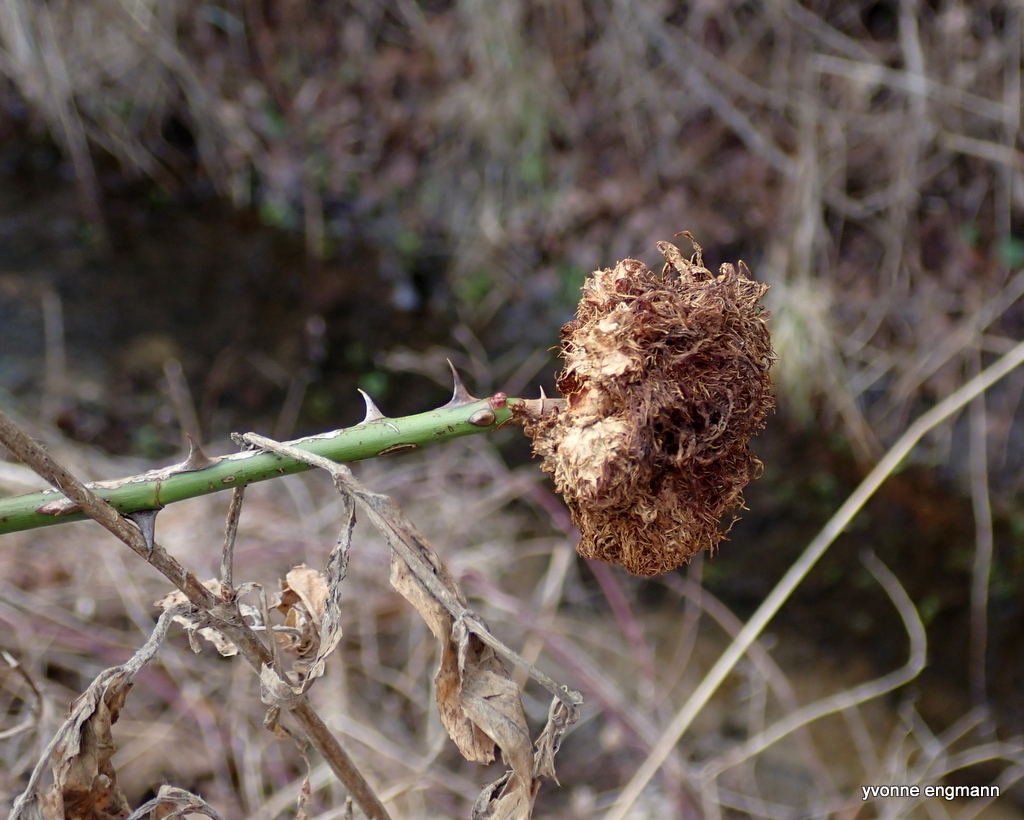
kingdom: Animalia
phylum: Arthropoda
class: Insecta
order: Hymenoptera
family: Cynipidae
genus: Diplolepis
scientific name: Diplolepis rosae
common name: Bedeguar gall
